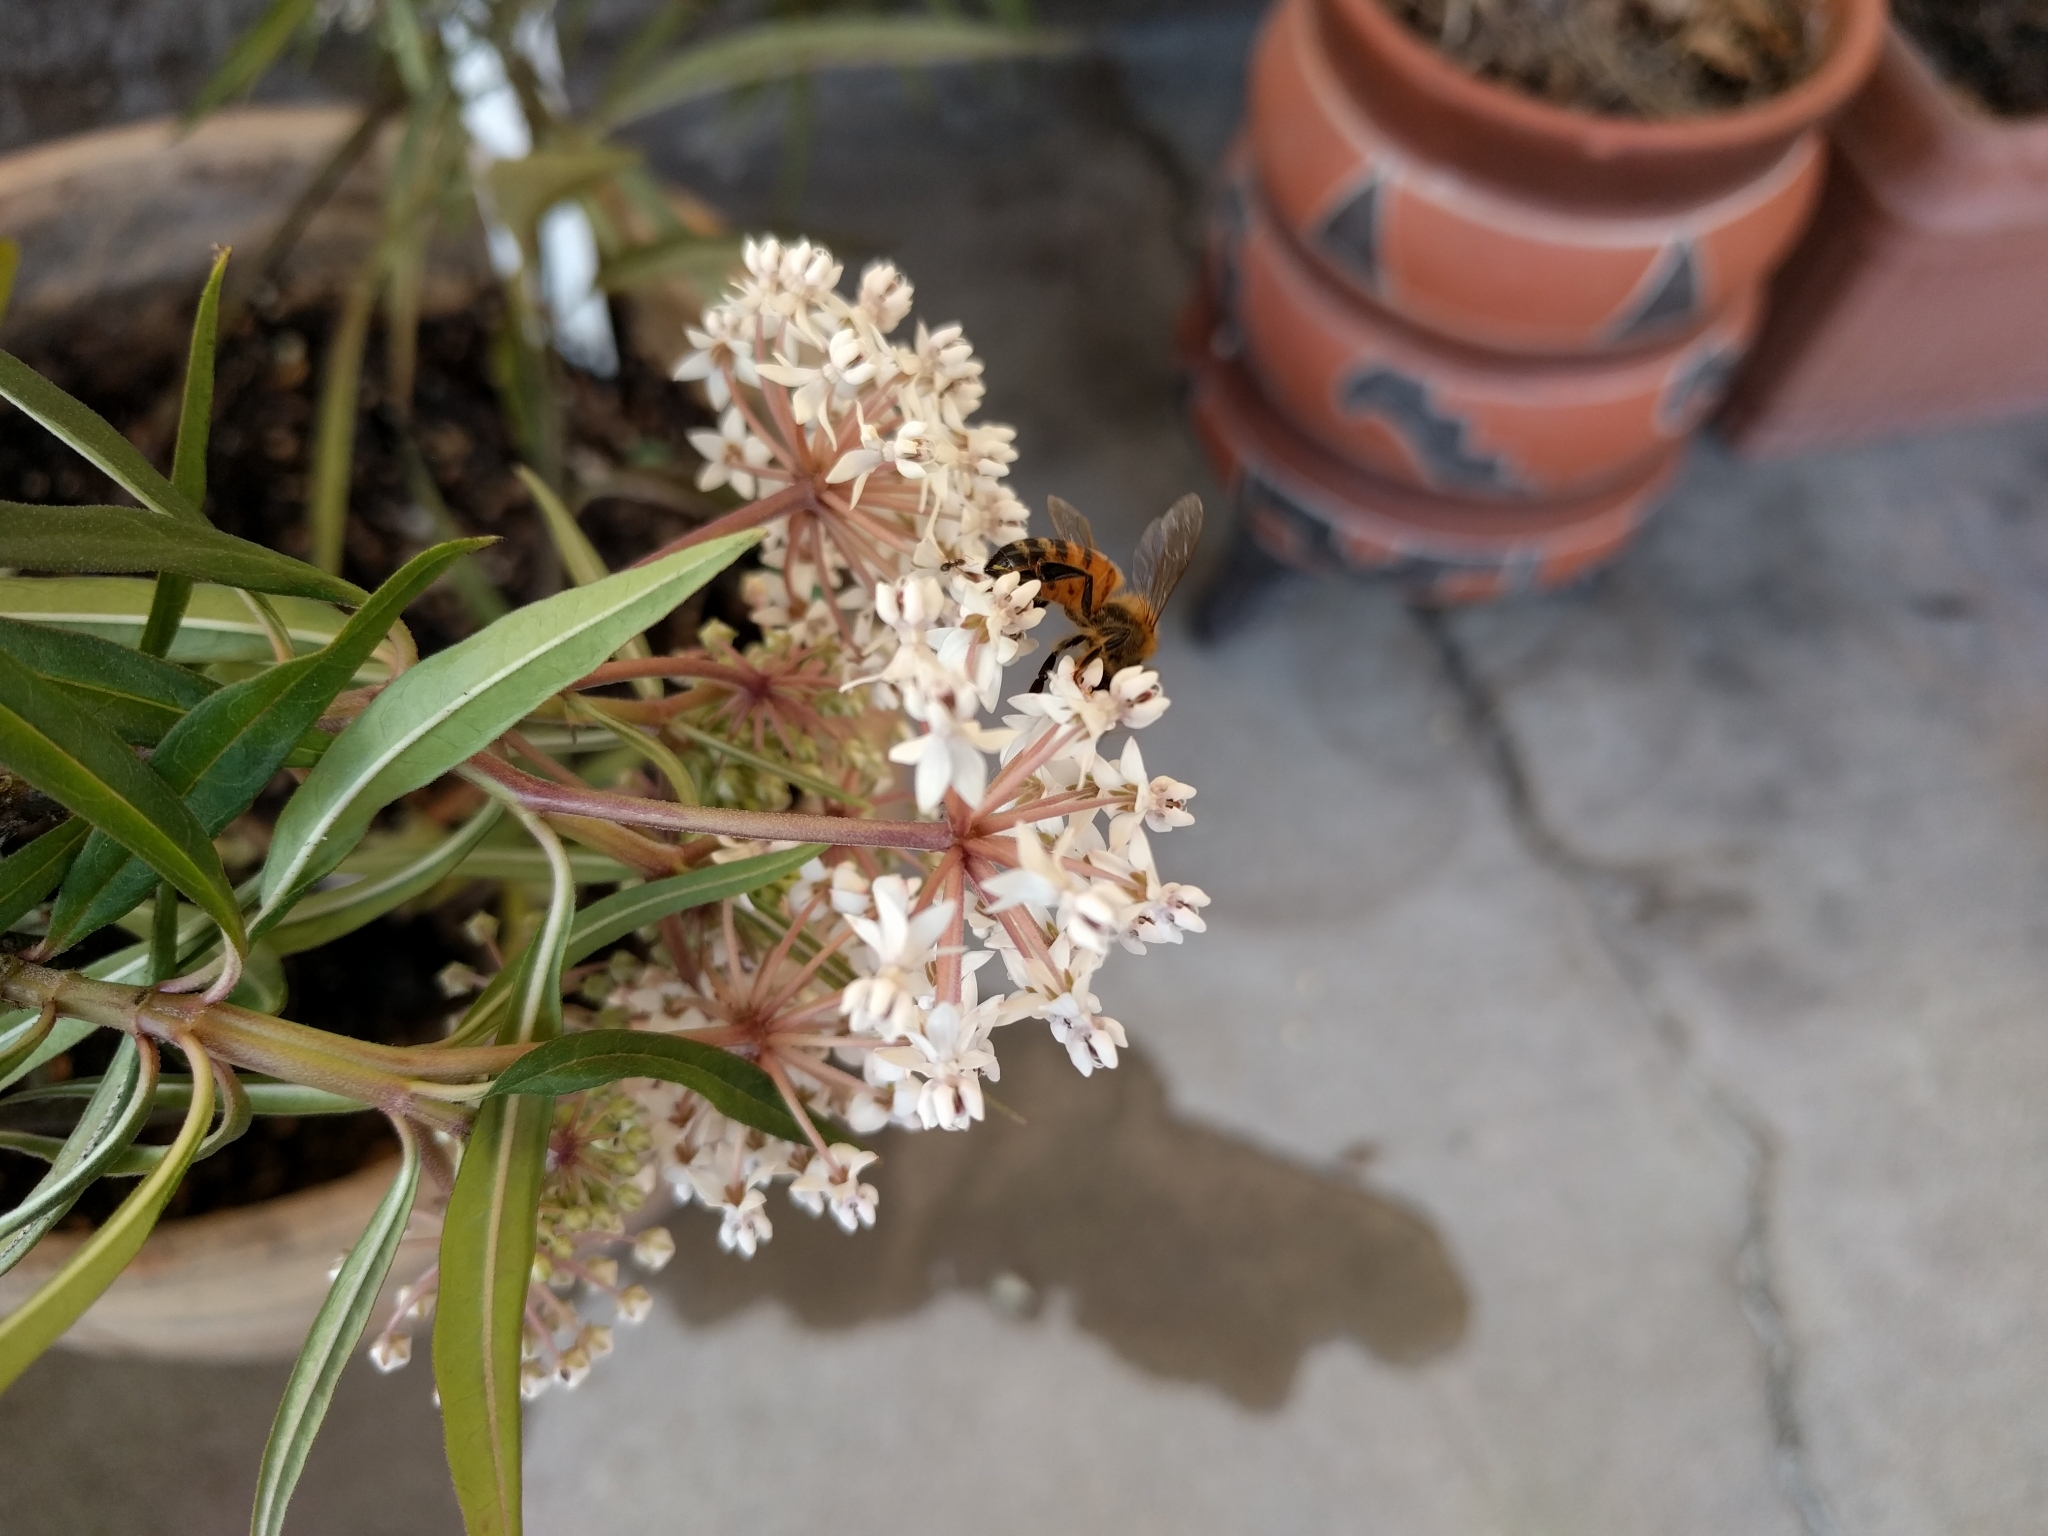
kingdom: Animalia
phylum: Arthropoda
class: Insecta
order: Hymenoptera
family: Apidae
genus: Apis
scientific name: Apis mellifera
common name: Honey bee
